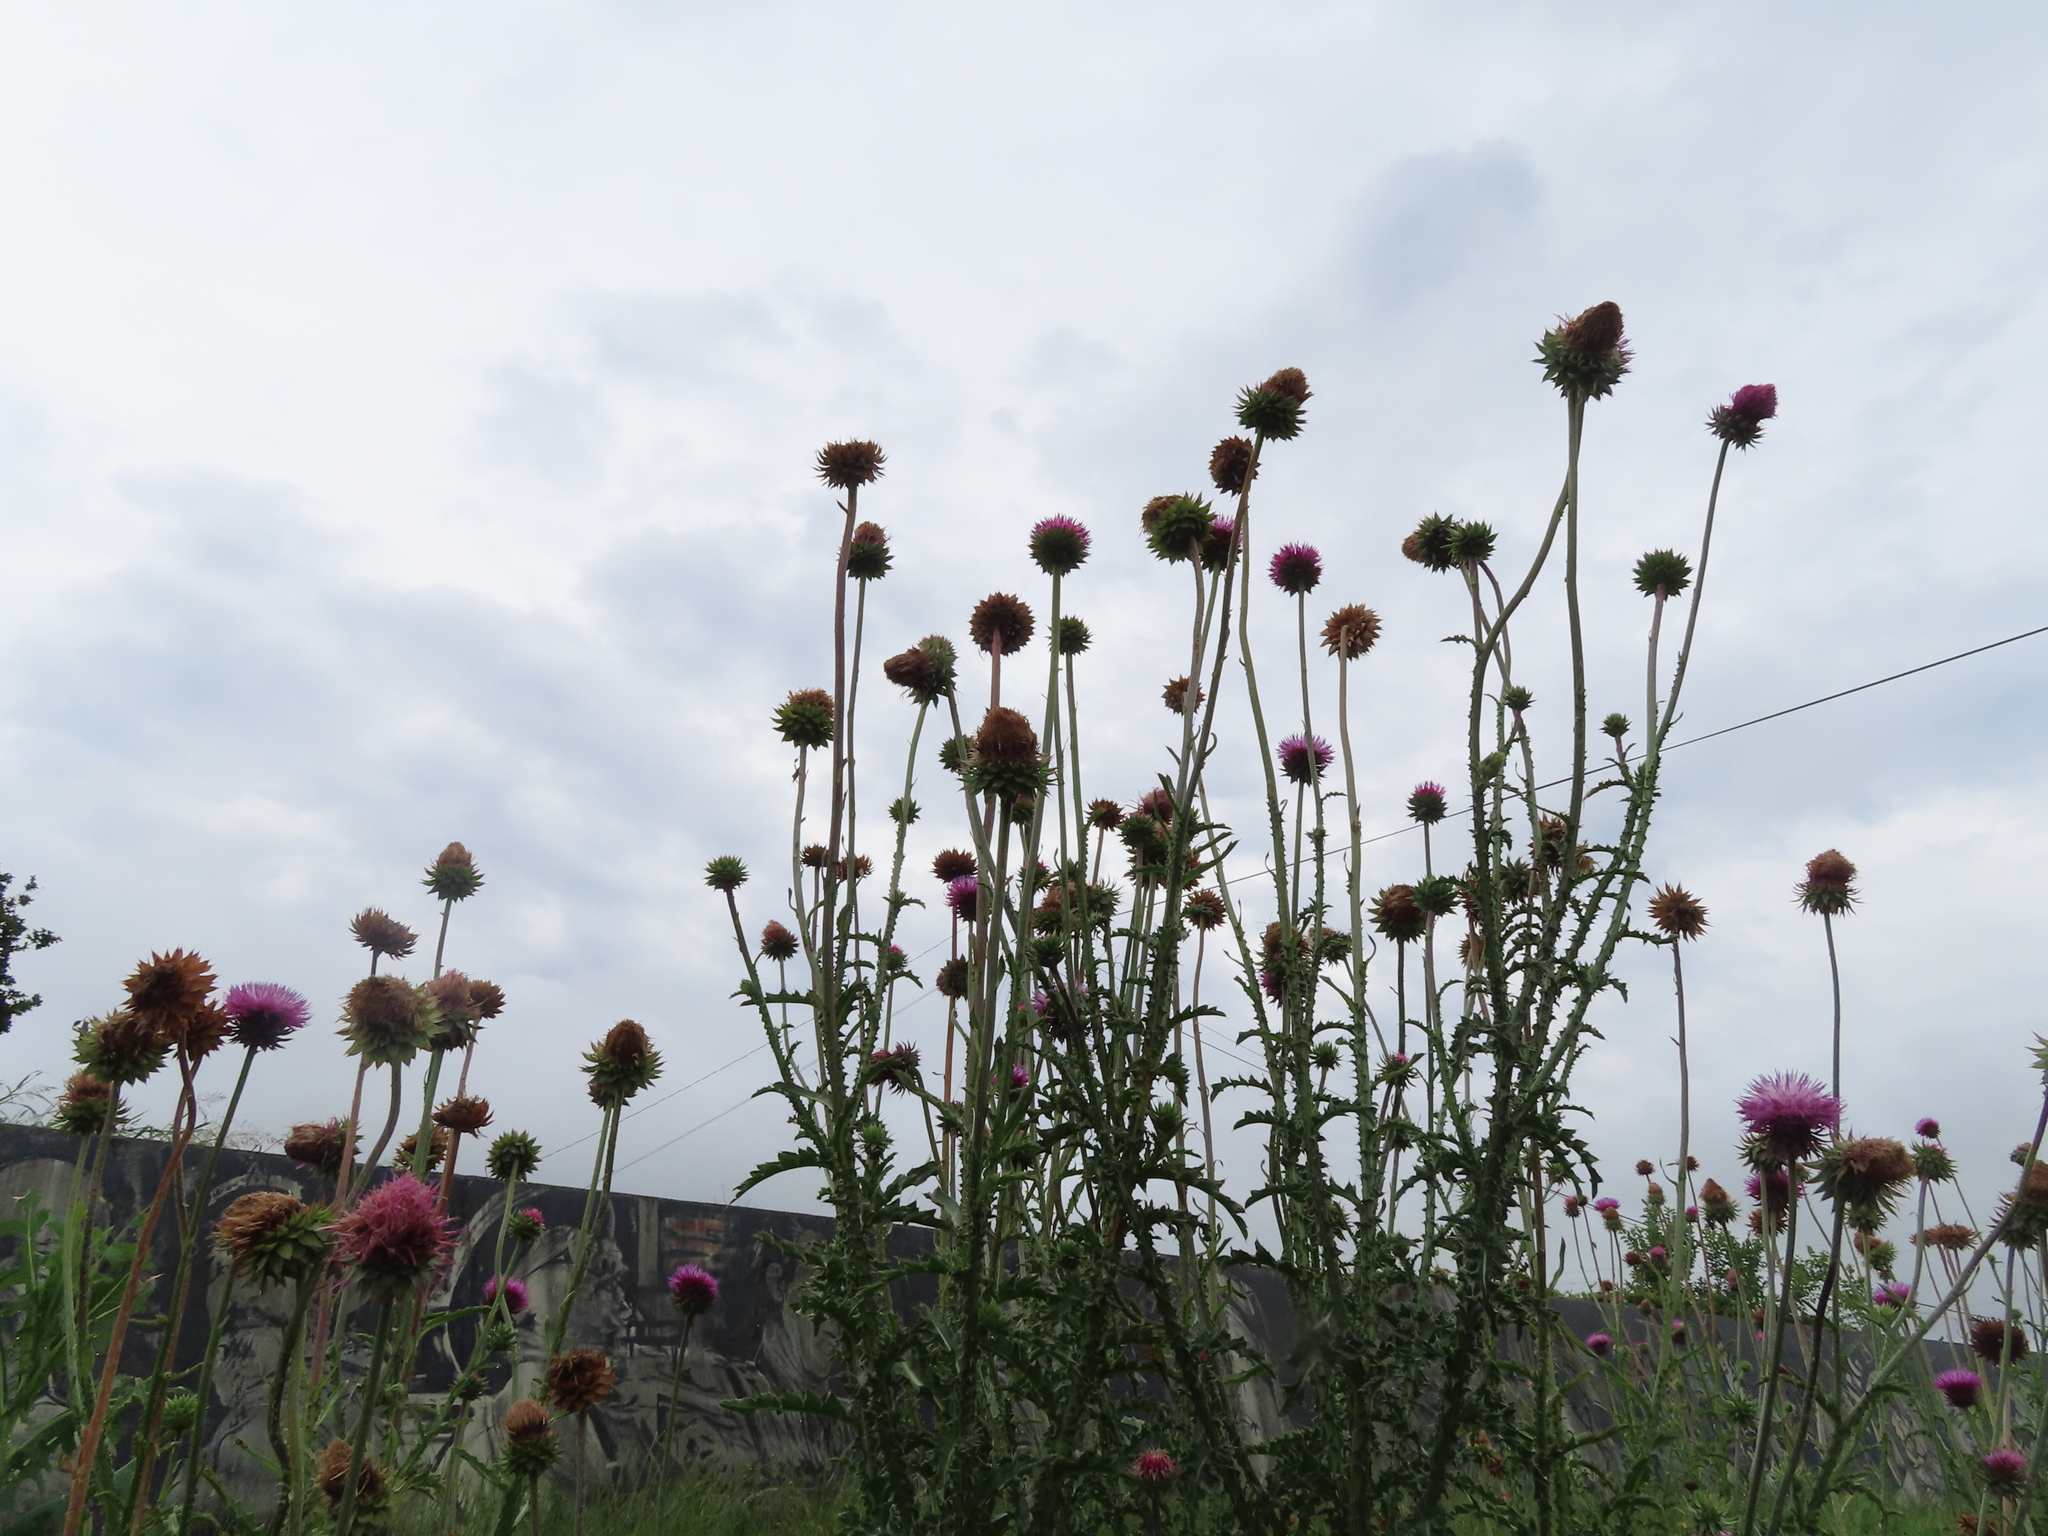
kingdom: Plantae
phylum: Tracheophyta
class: Magnoliopsida
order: Asterales
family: Asteraceae
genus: Carduus
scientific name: Carduus nutans
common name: Musk thistle
